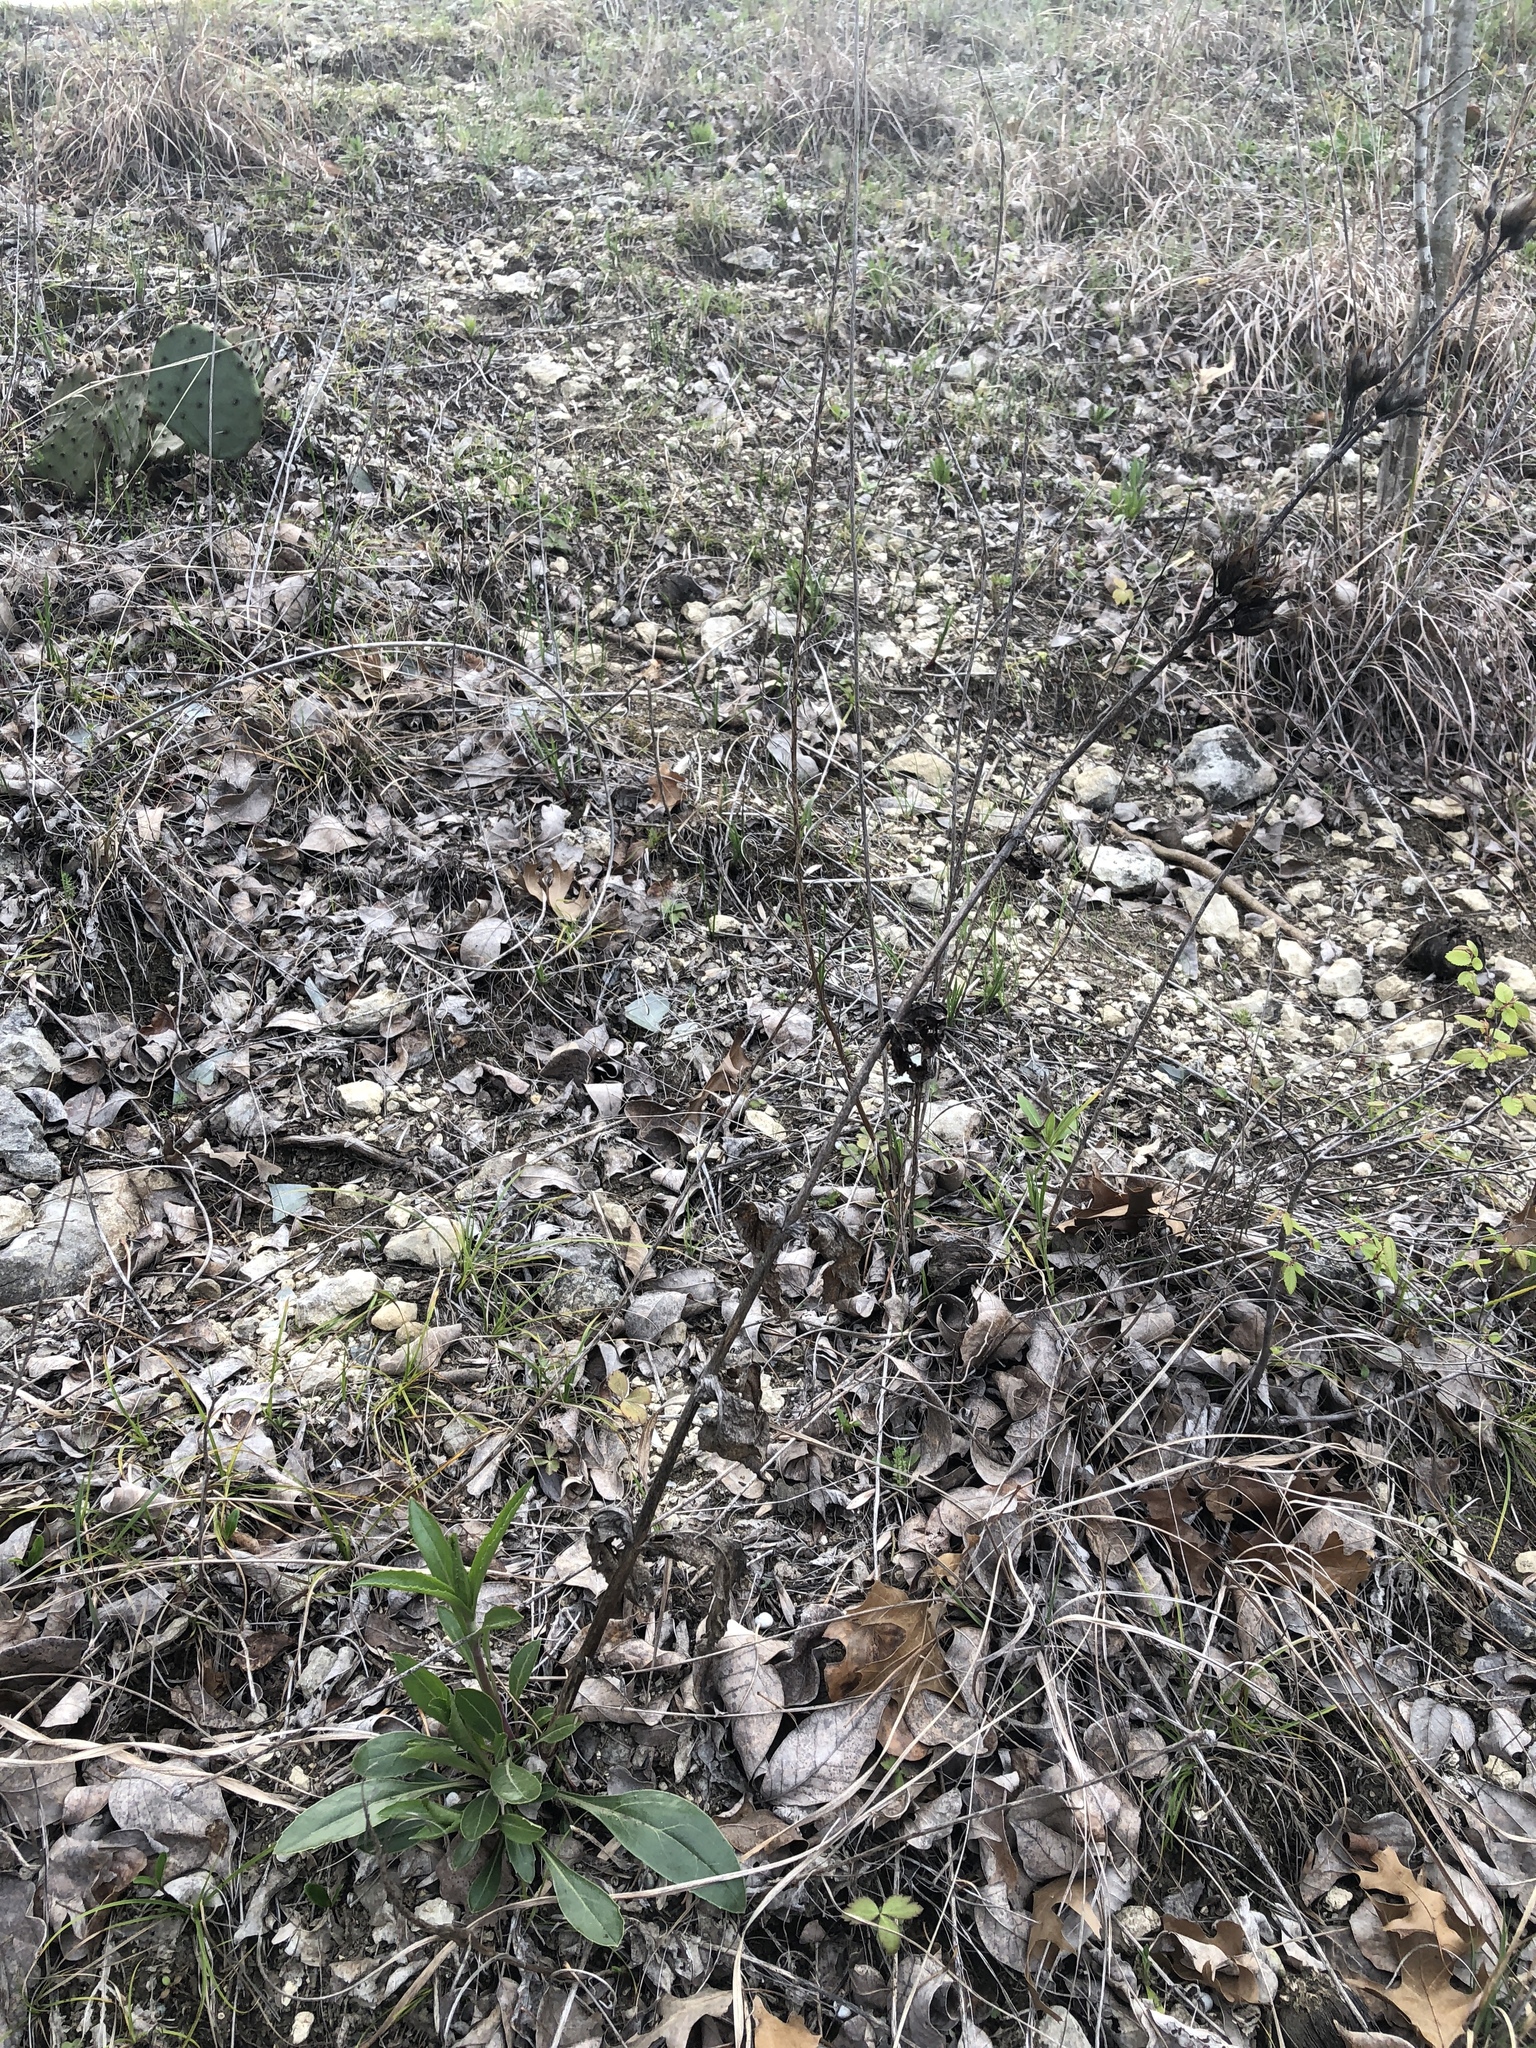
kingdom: Plantae
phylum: Tracheophyta
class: Magnoliopsida
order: Lamiales
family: Plantaginaceae
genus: Penstemon
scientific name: Penstemon cobaea
